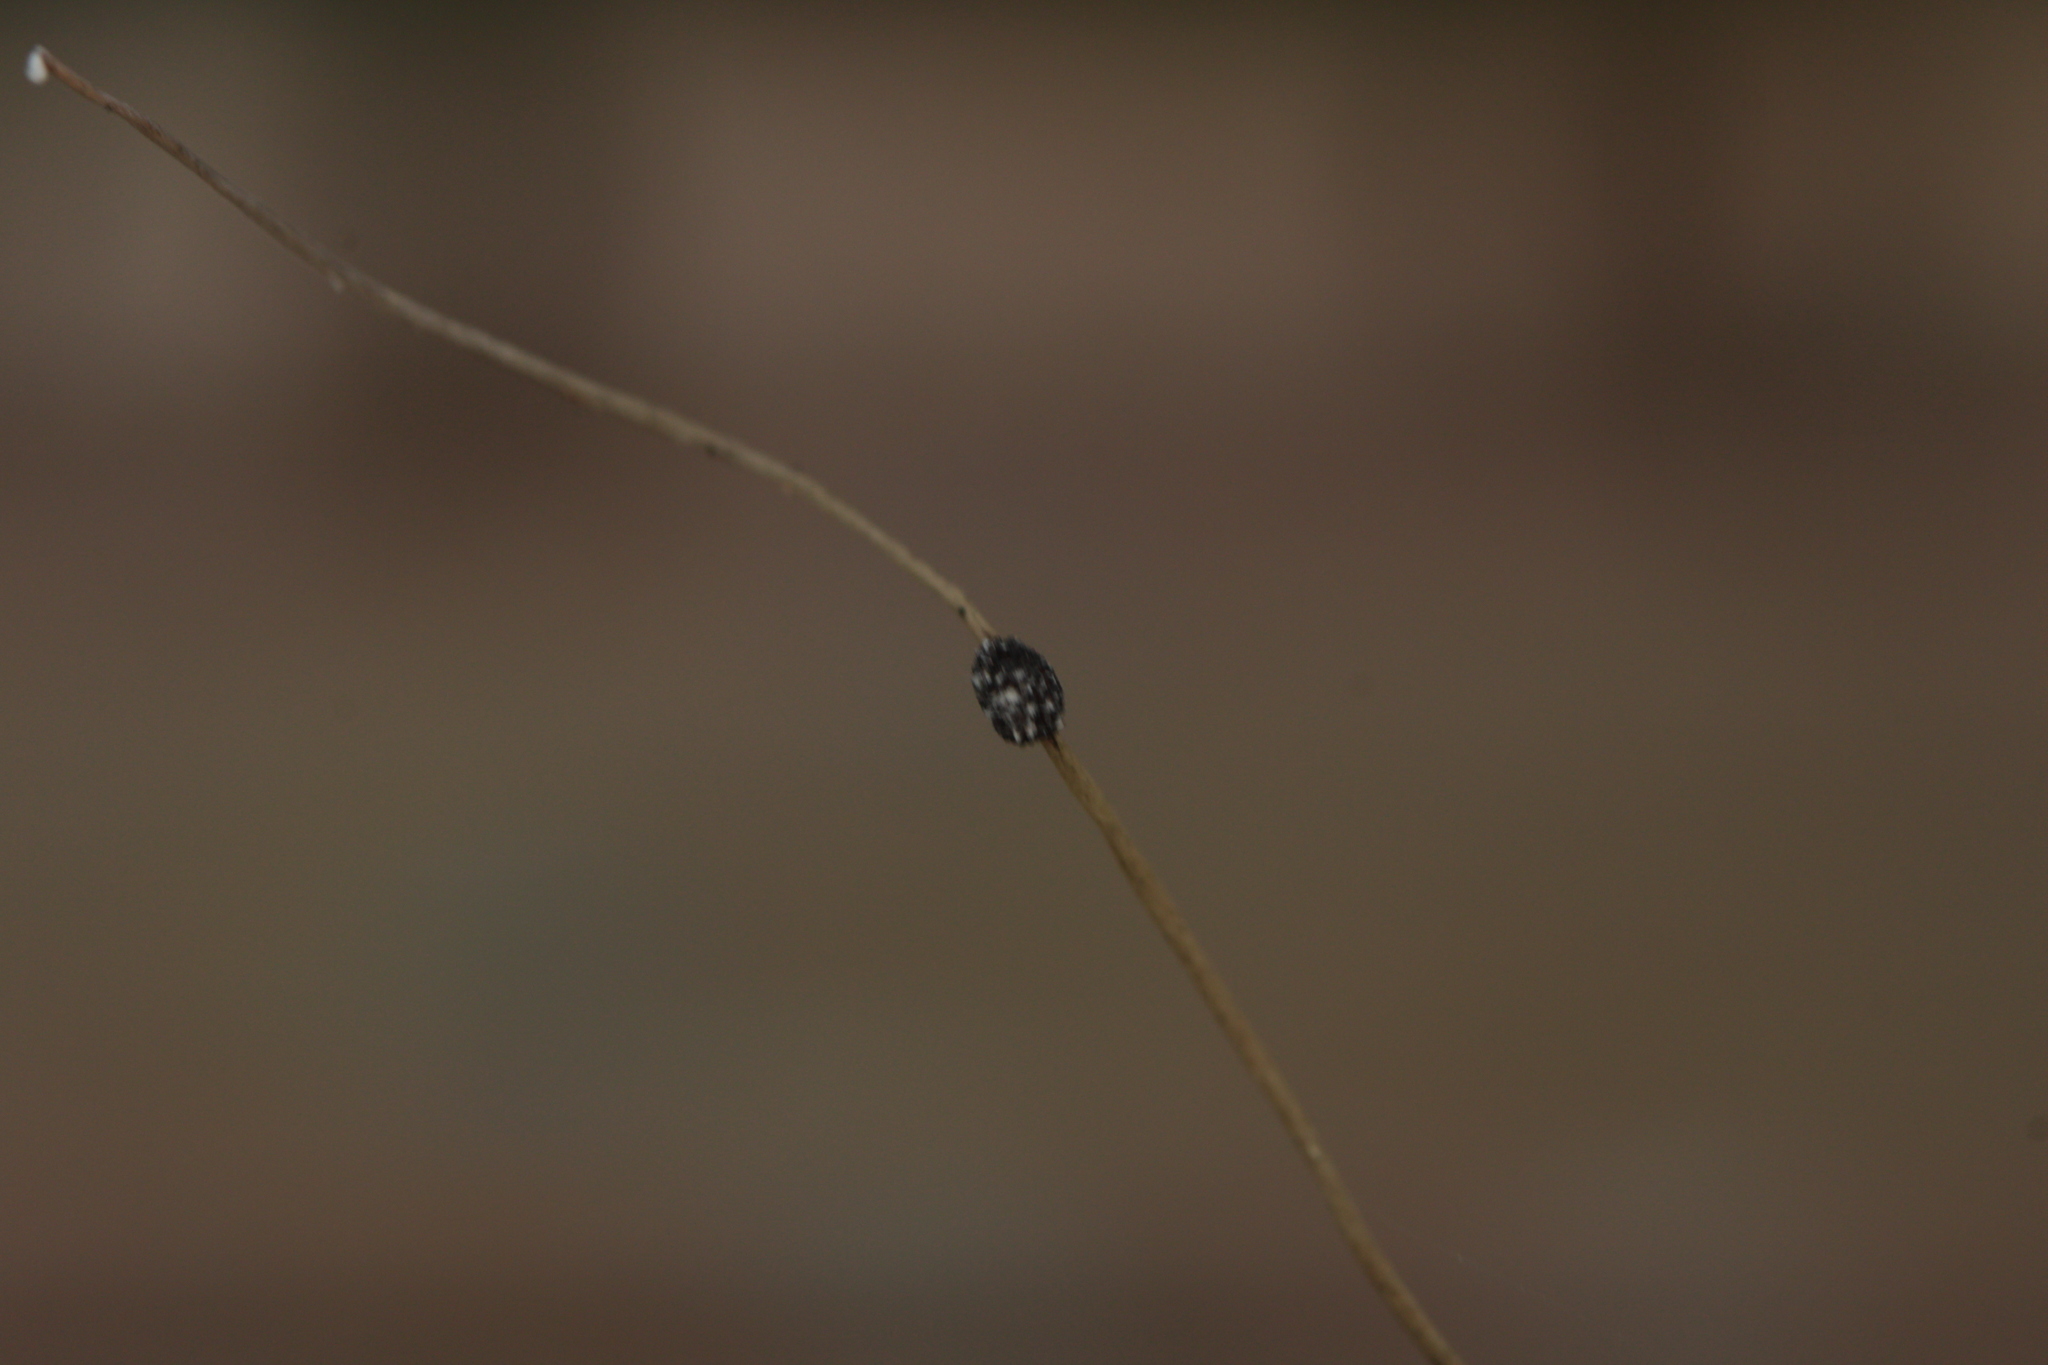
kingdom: Fungi
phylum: Ascomycota
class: Sordariomycetes
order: Hypocreales
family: Ophiocordycipitaceae
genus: Ophiocordyceps
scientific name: Ophiocordyceps camponoti-floridani
